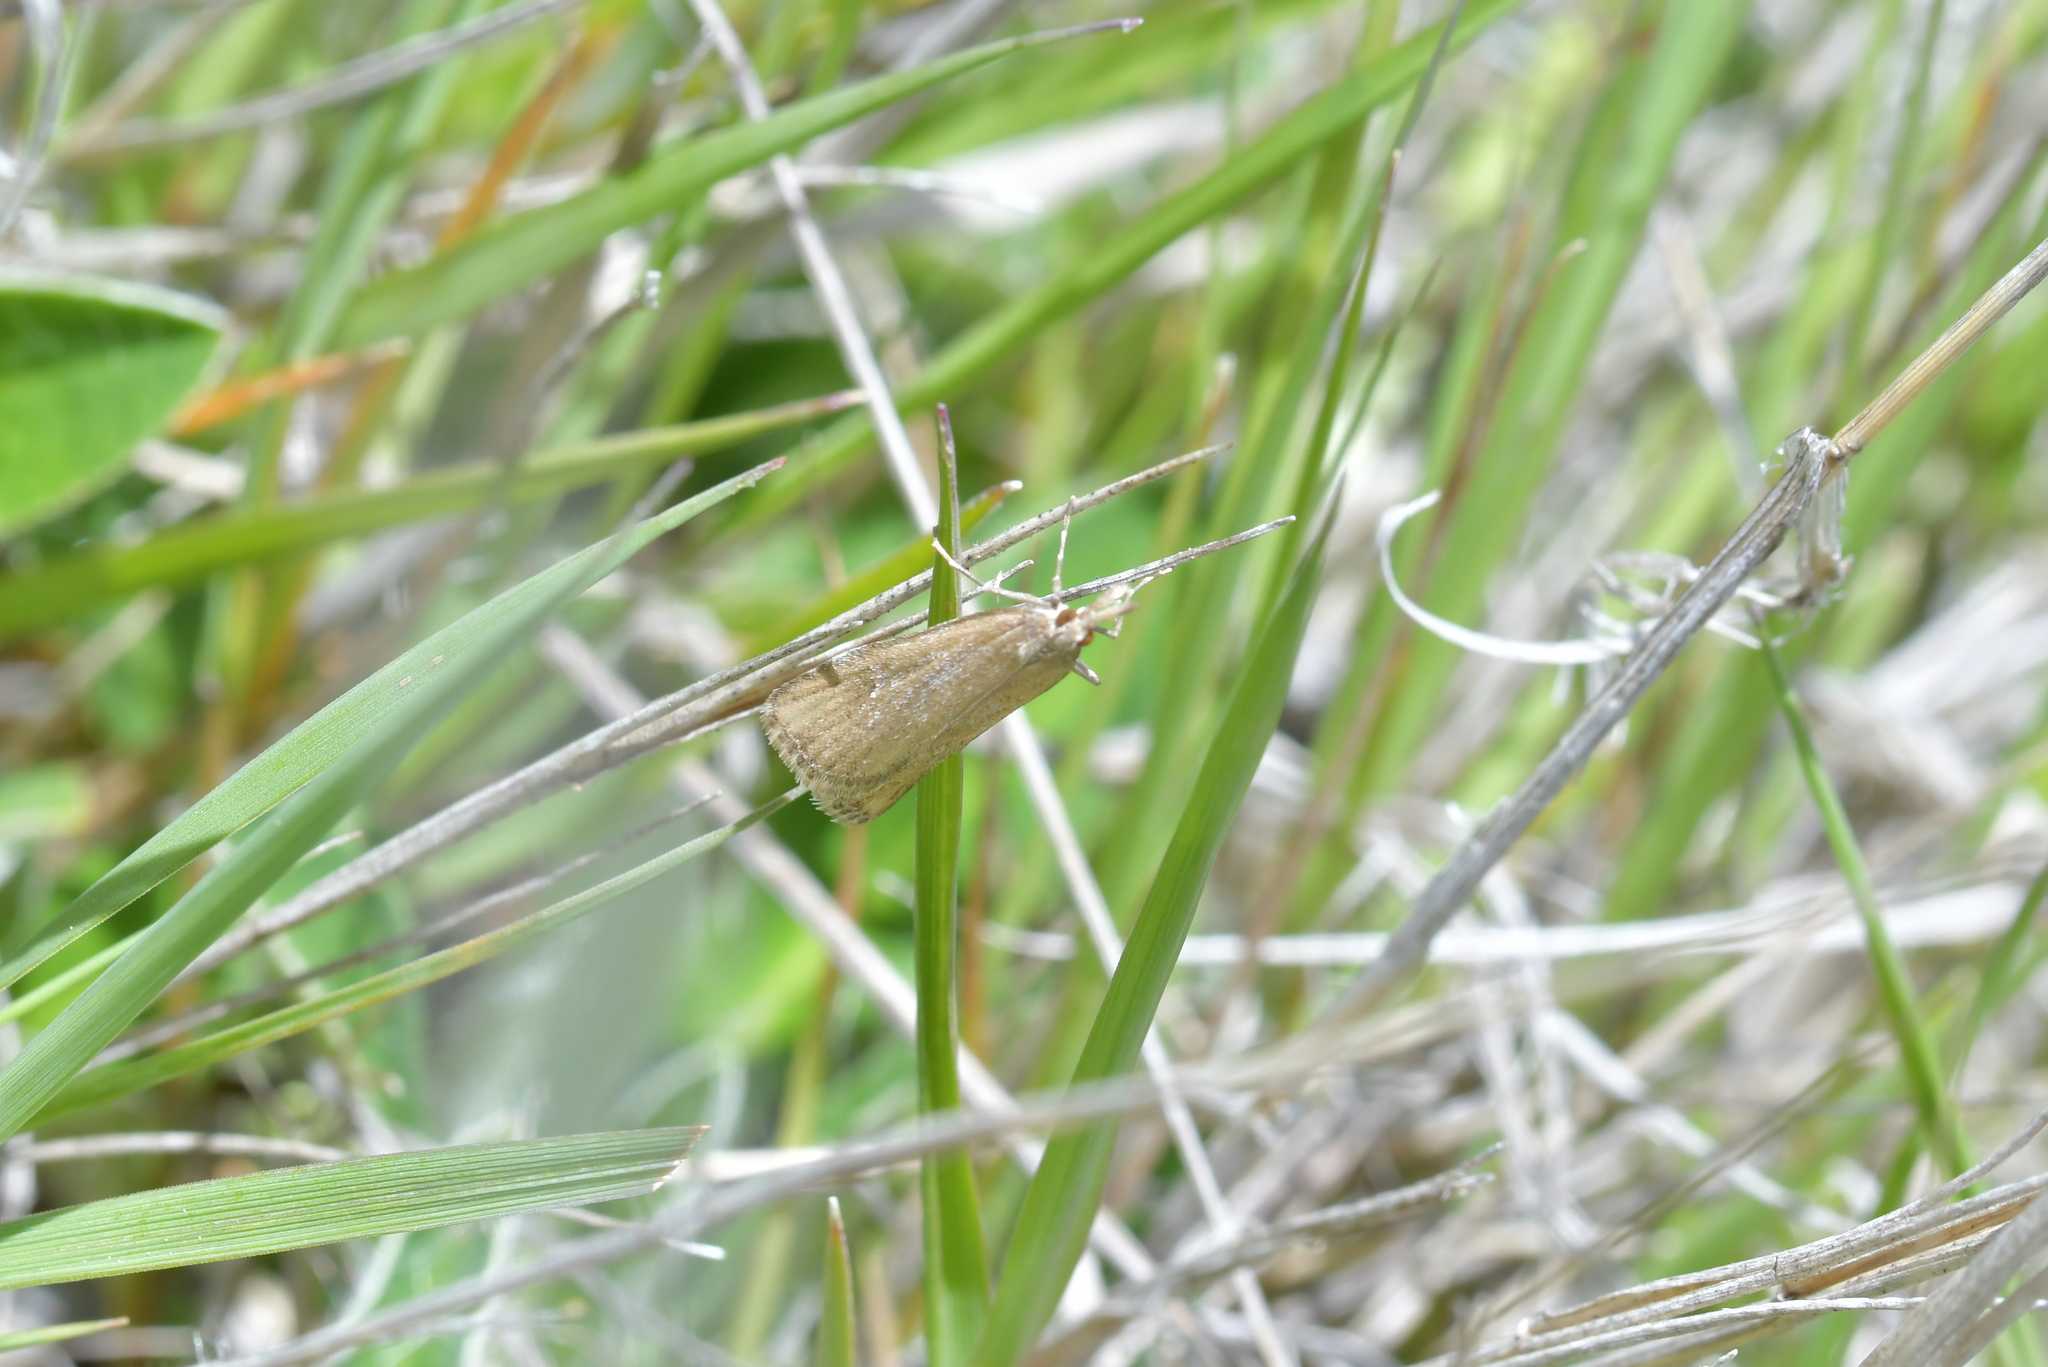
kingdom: Animalia
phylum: Arthropoda
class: Insecta
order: Lepidoptera
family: Crambidae
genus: Eudonia
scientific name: Eudonia chalara
